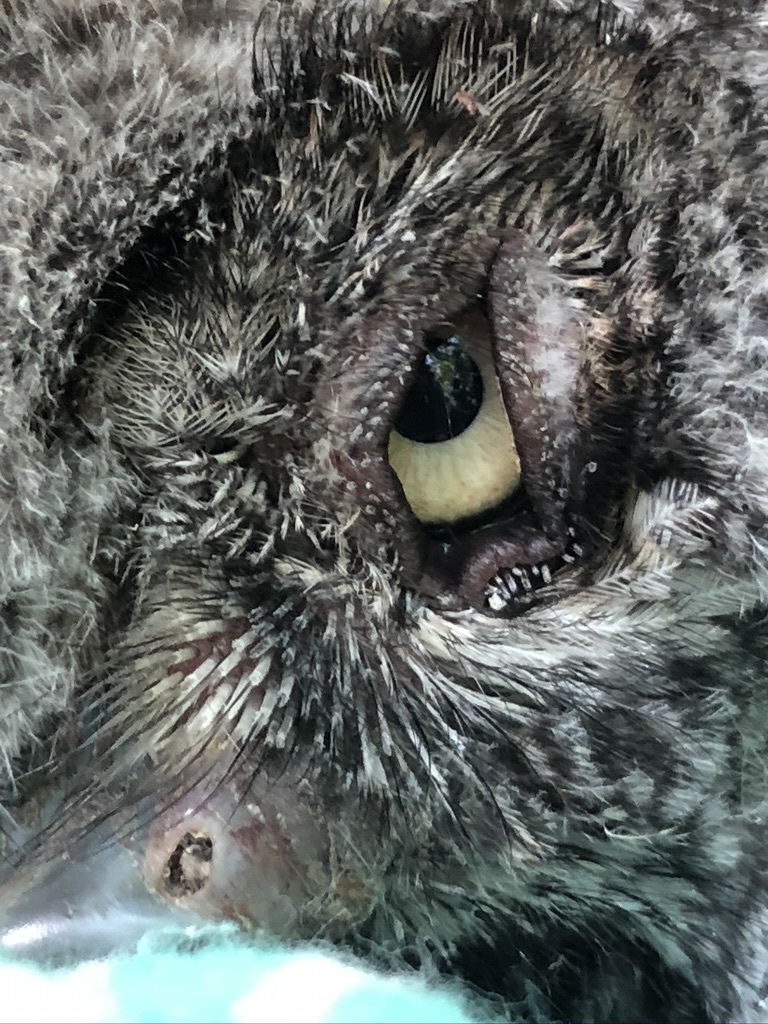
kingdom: Animalia
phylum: Chordata
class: Aves
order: Strigiformes
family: Strigidae
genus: Megascops
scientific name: Megascops kennicottii
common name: Western screech-owl
